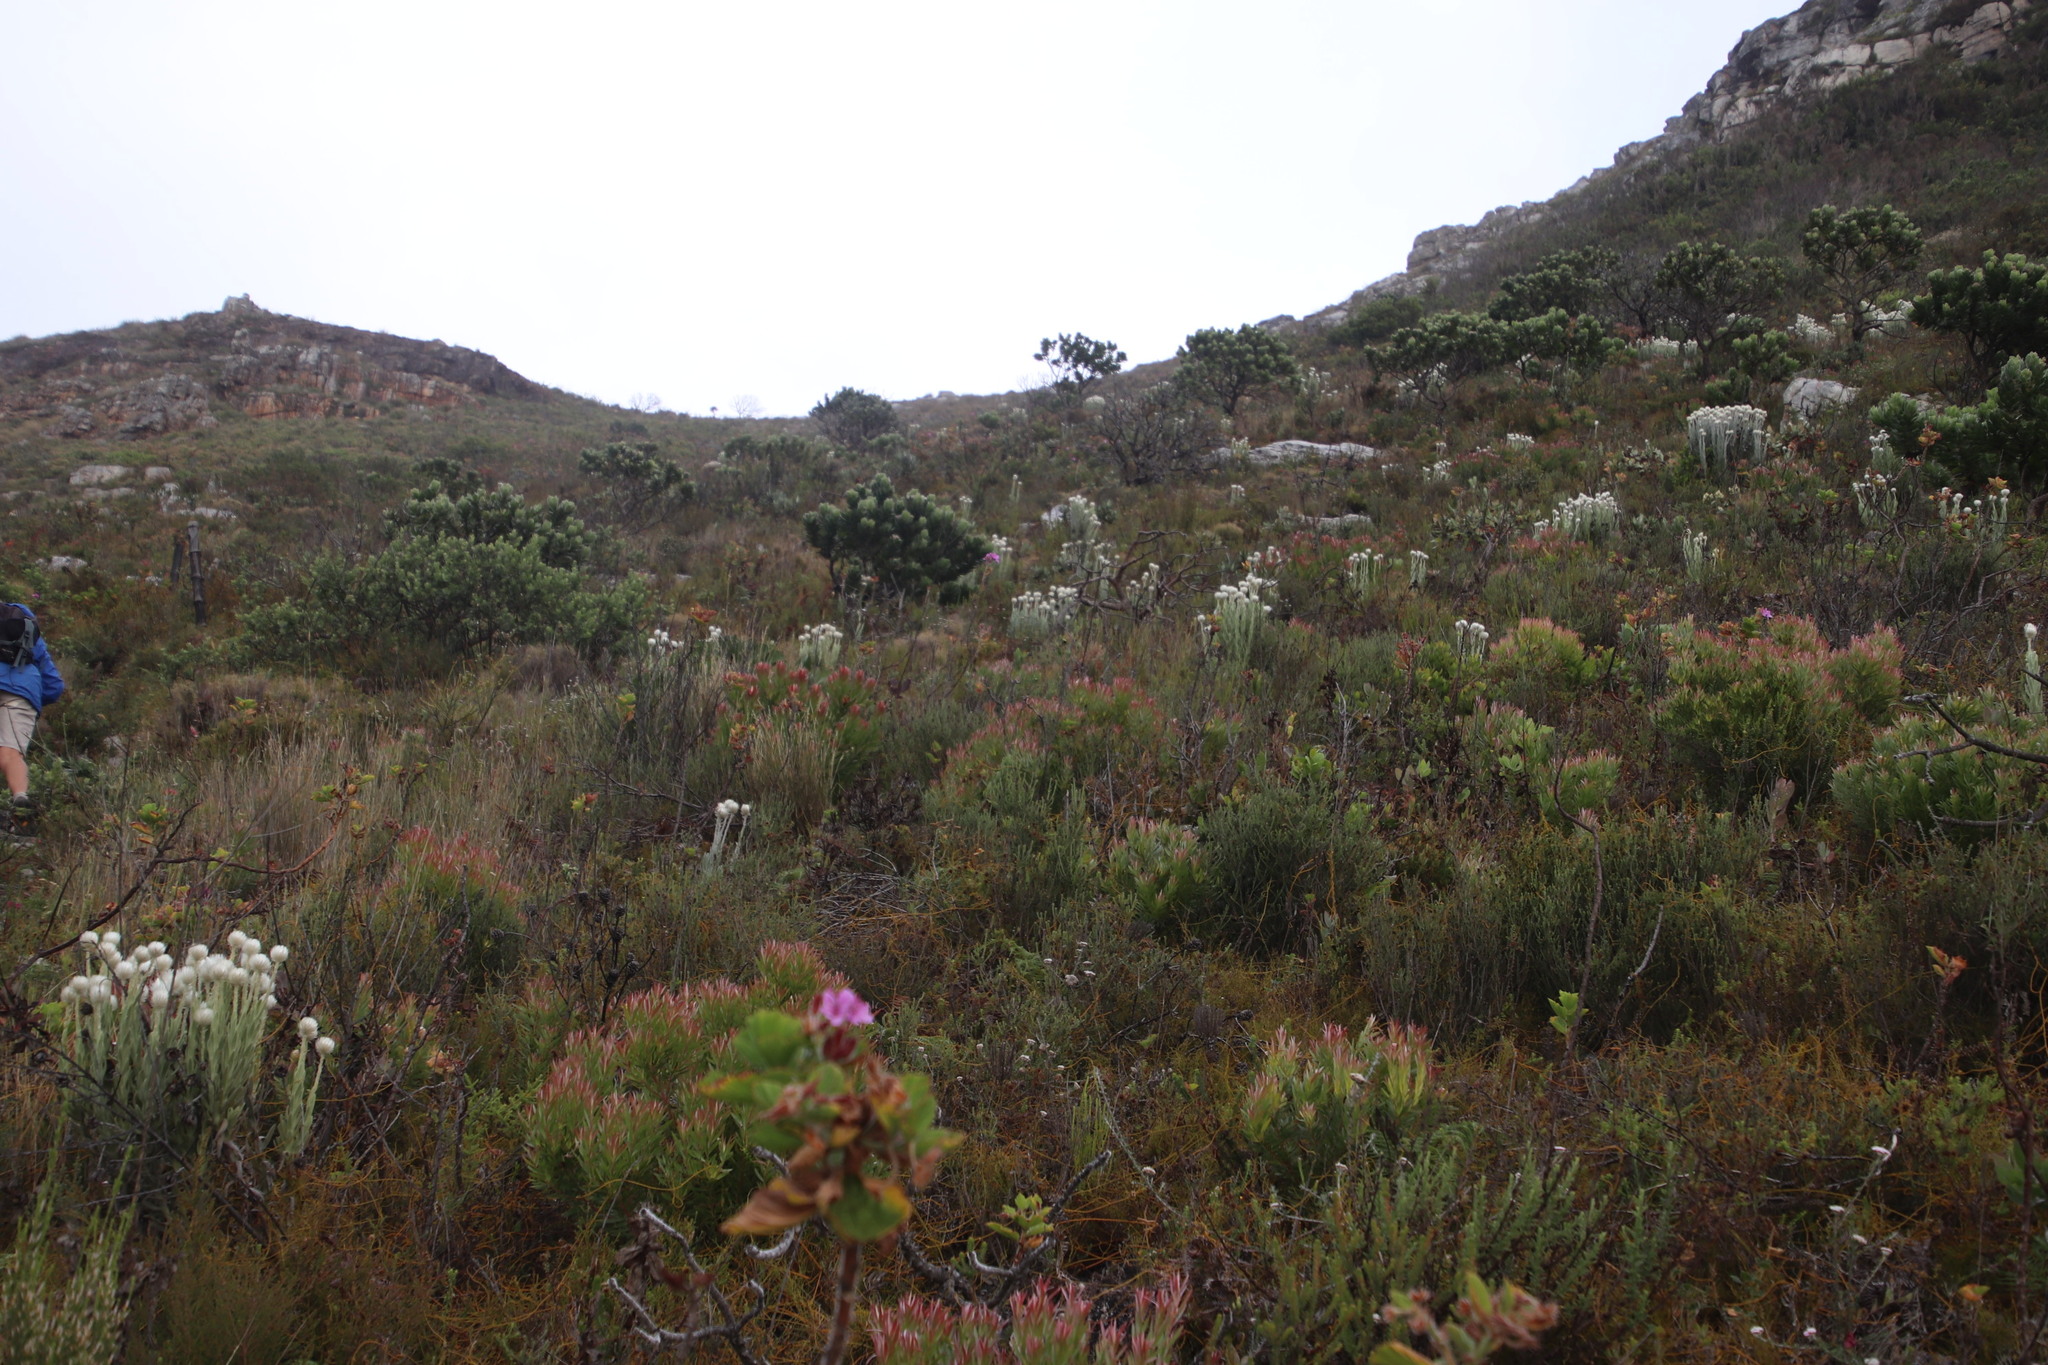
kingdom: Plantae
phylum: Tracheophyta
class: Magnoliopsida
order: Proteales
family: Proteaceae
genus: Leucadendron
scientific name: Leucadendron xanthoconus
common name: Sickle-leaf conebush
